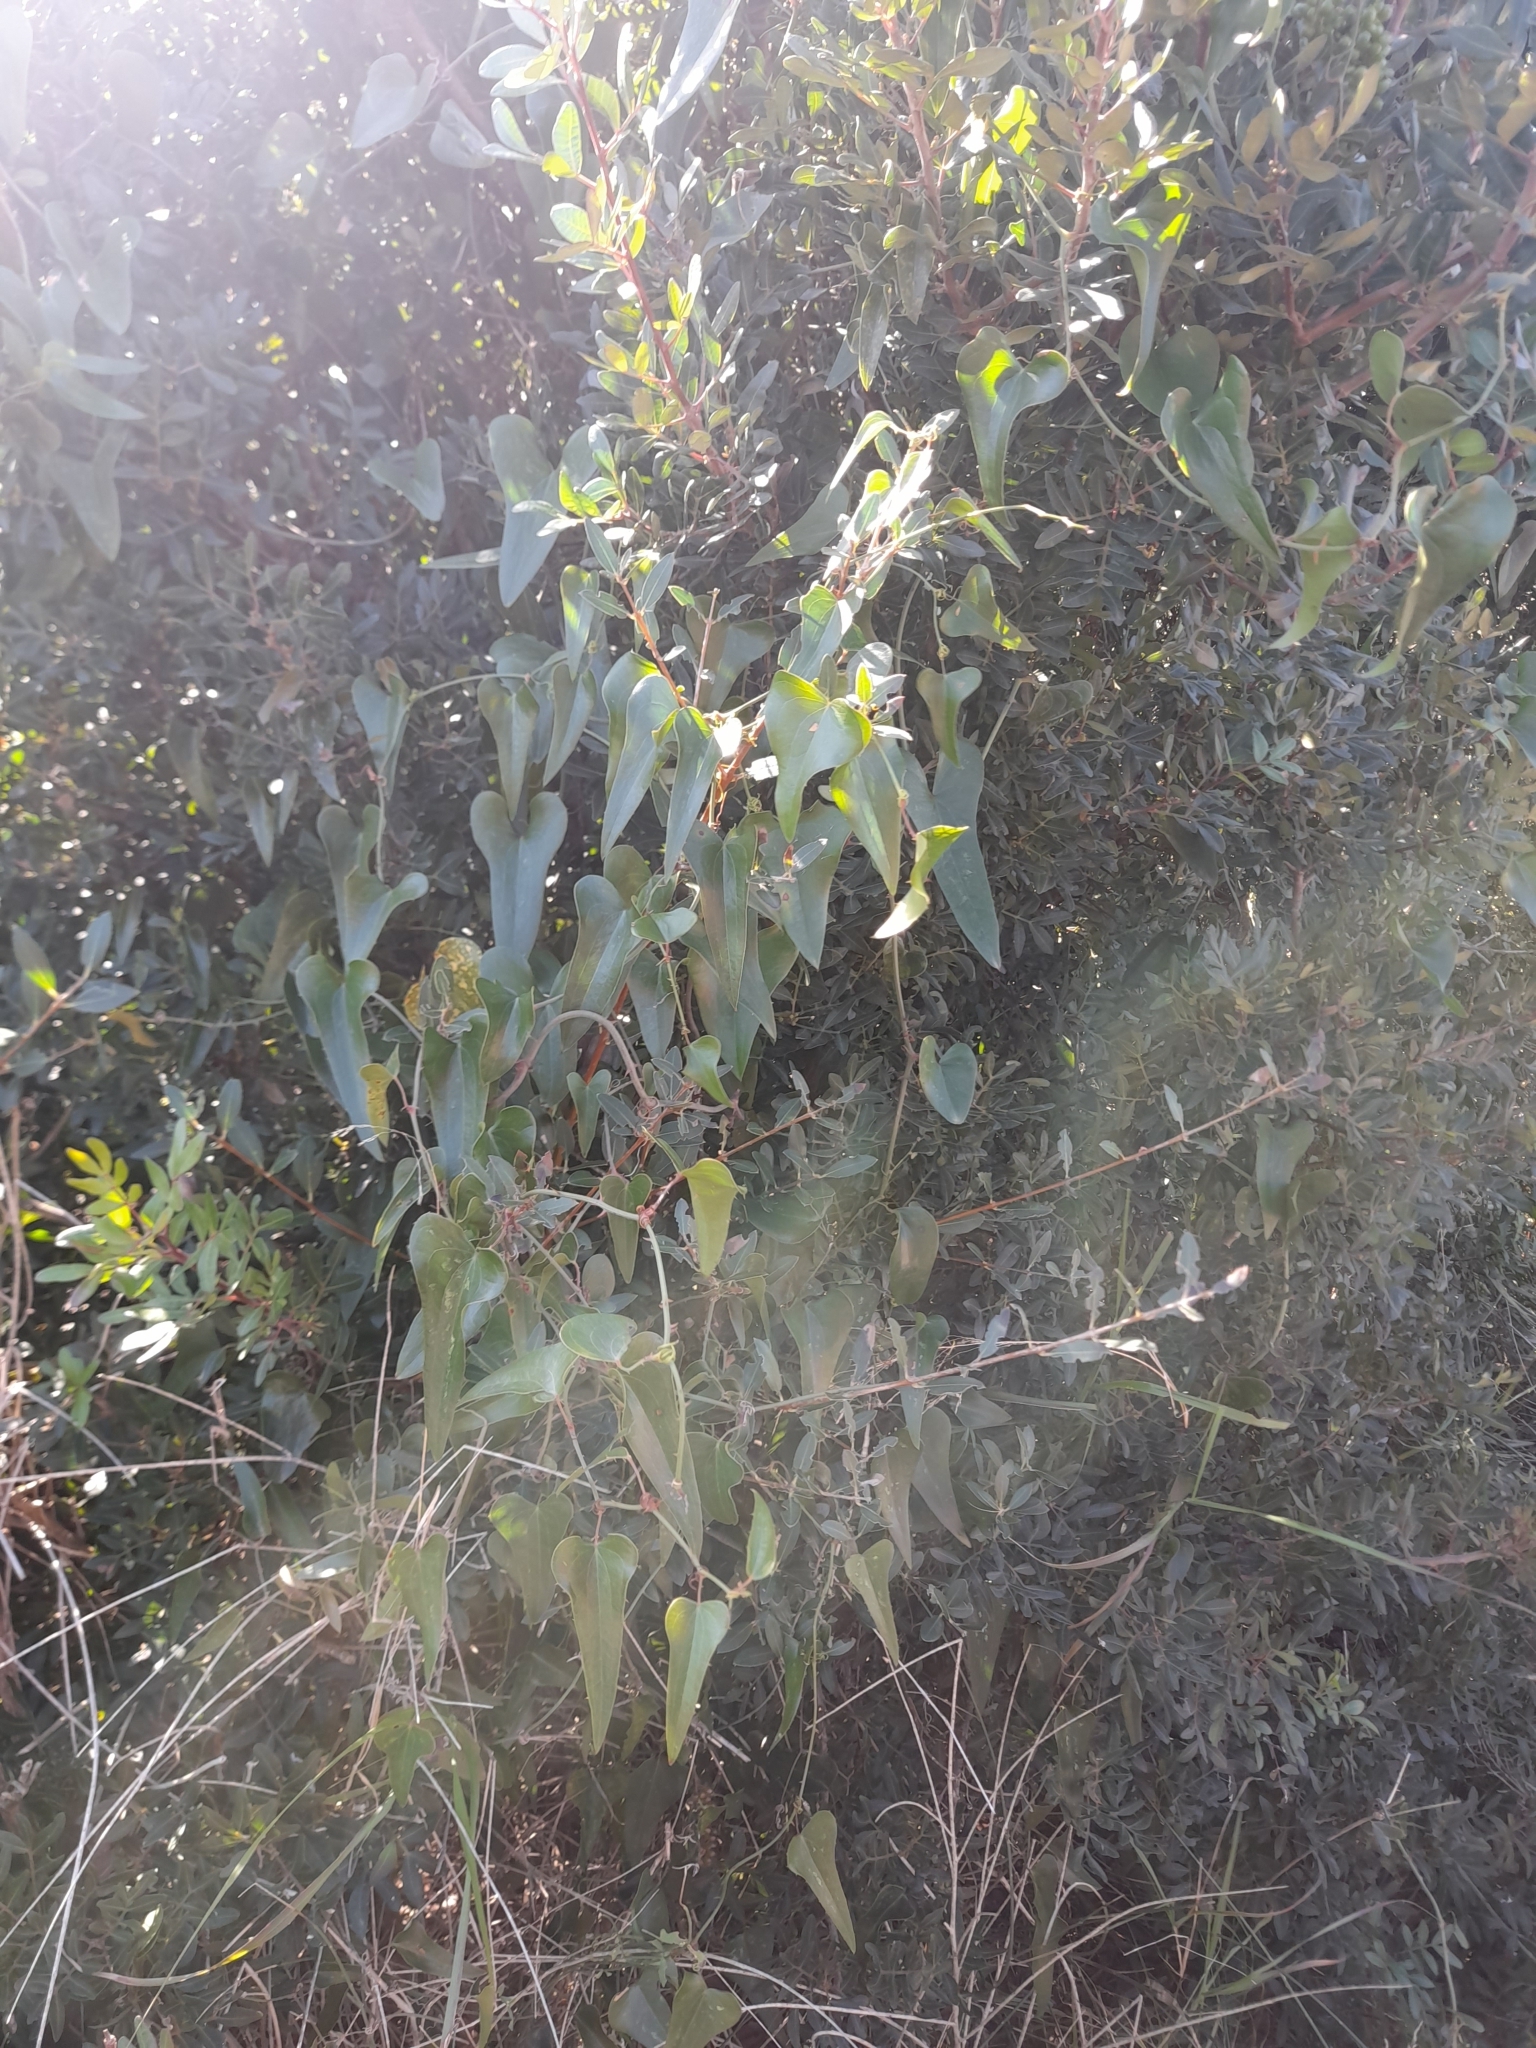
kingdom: Plantae
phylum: Tracheophyta
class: Liliopsida
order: Liliales
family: Smilacaceae
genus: Smilax
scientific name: Smilax aspera
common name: Common smilax
